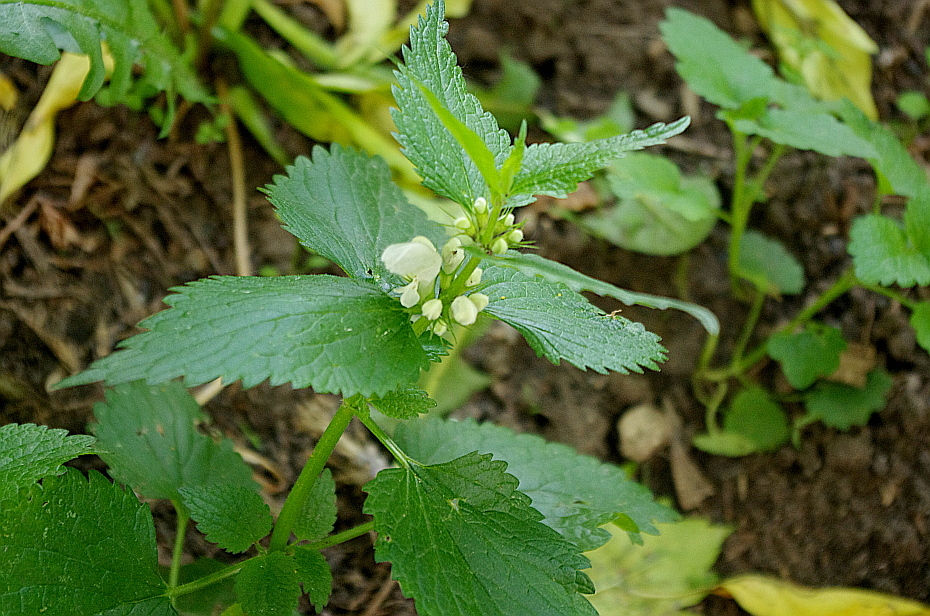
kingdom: Plantae
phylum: Tracheophyta
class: Magnoliopsida
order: Lamiales
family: Lamiaceae
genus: Lamium
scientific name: Lamium album
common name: White dead-nettle
